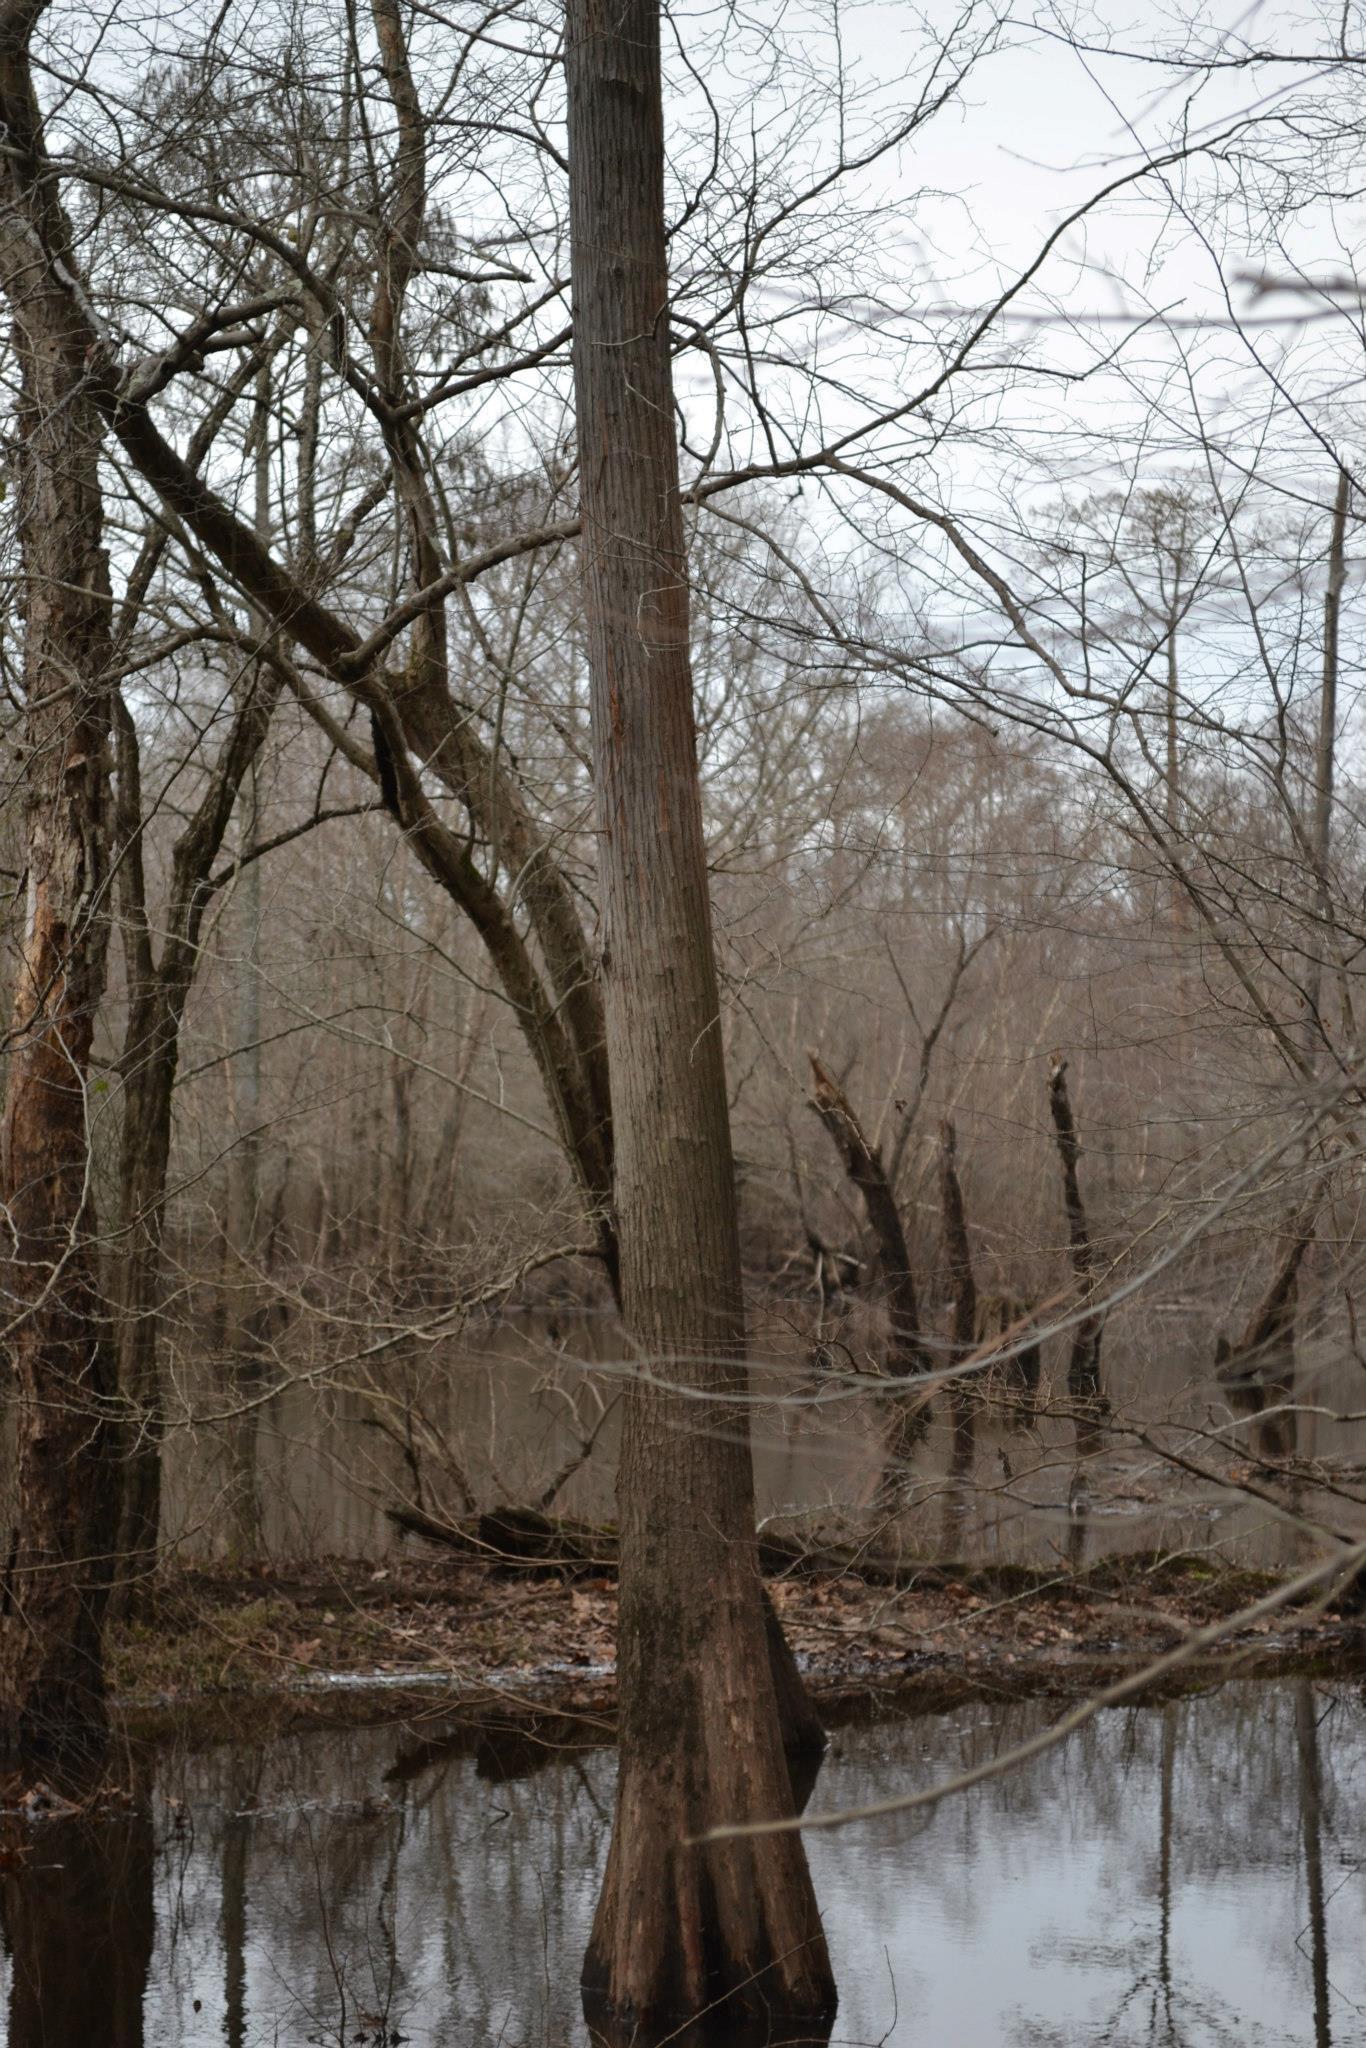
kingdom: Plantae
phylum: Tracheophyta
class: Pinopsida
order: Pinales
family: Cupressaceae
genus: Taxodium
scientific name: Taxodium distichum
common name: Bald cypress
